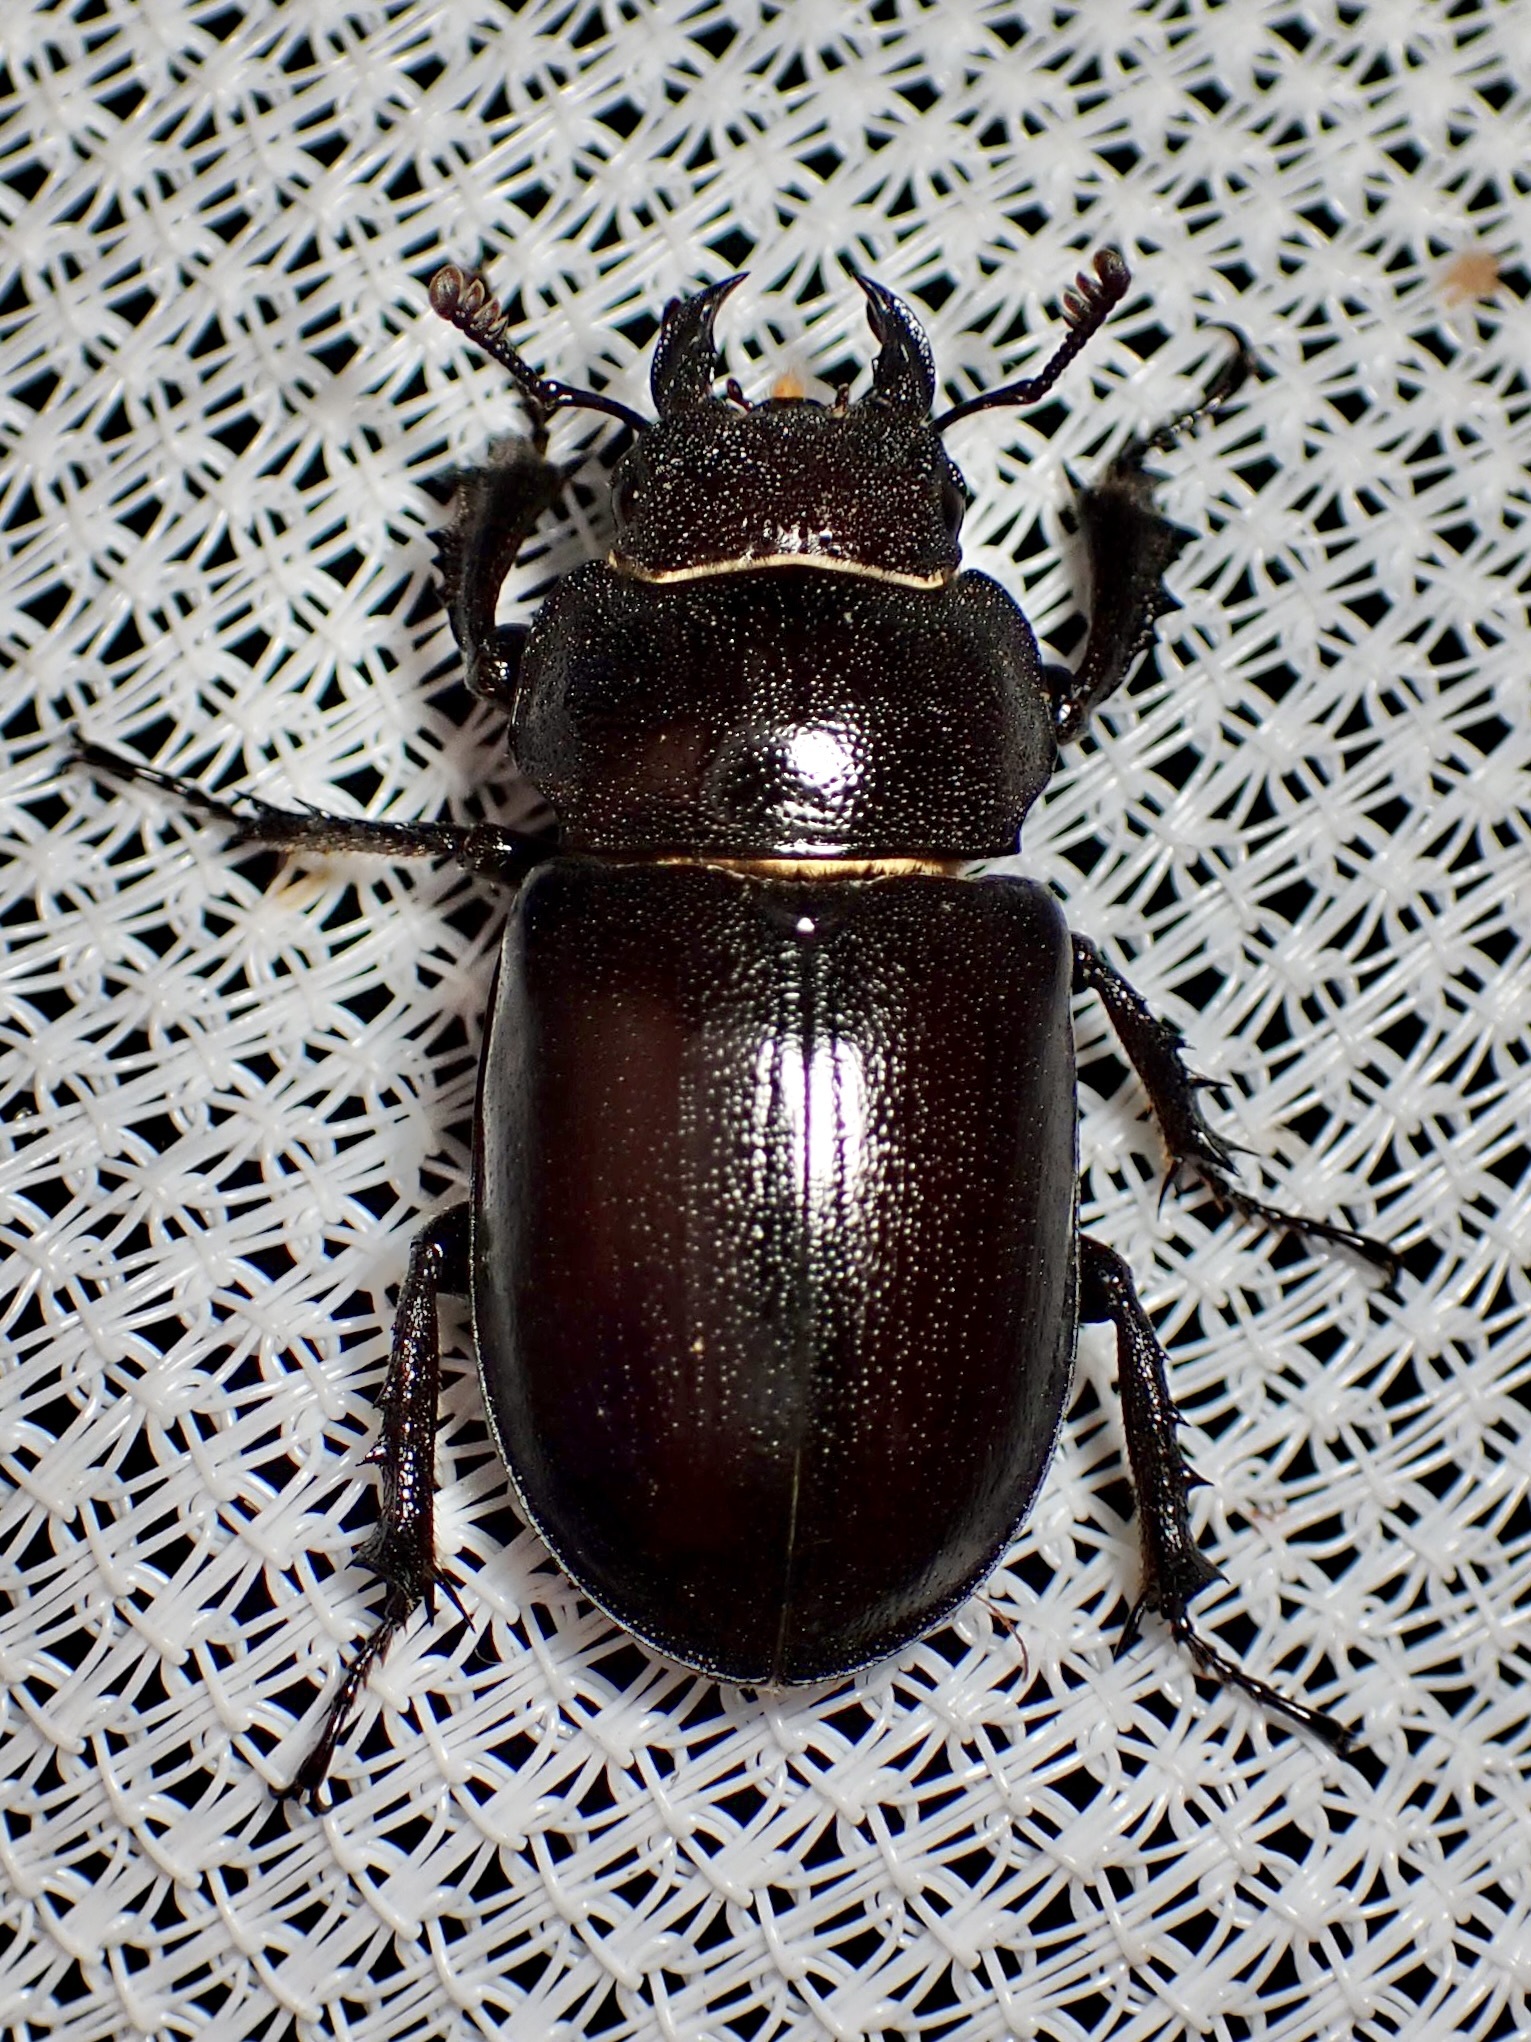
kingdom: Animalia
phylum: Arthropoda
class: Insecta
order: Coleoptera
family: Lucanidae
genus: Lucanus
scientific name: Lucanus mazama
